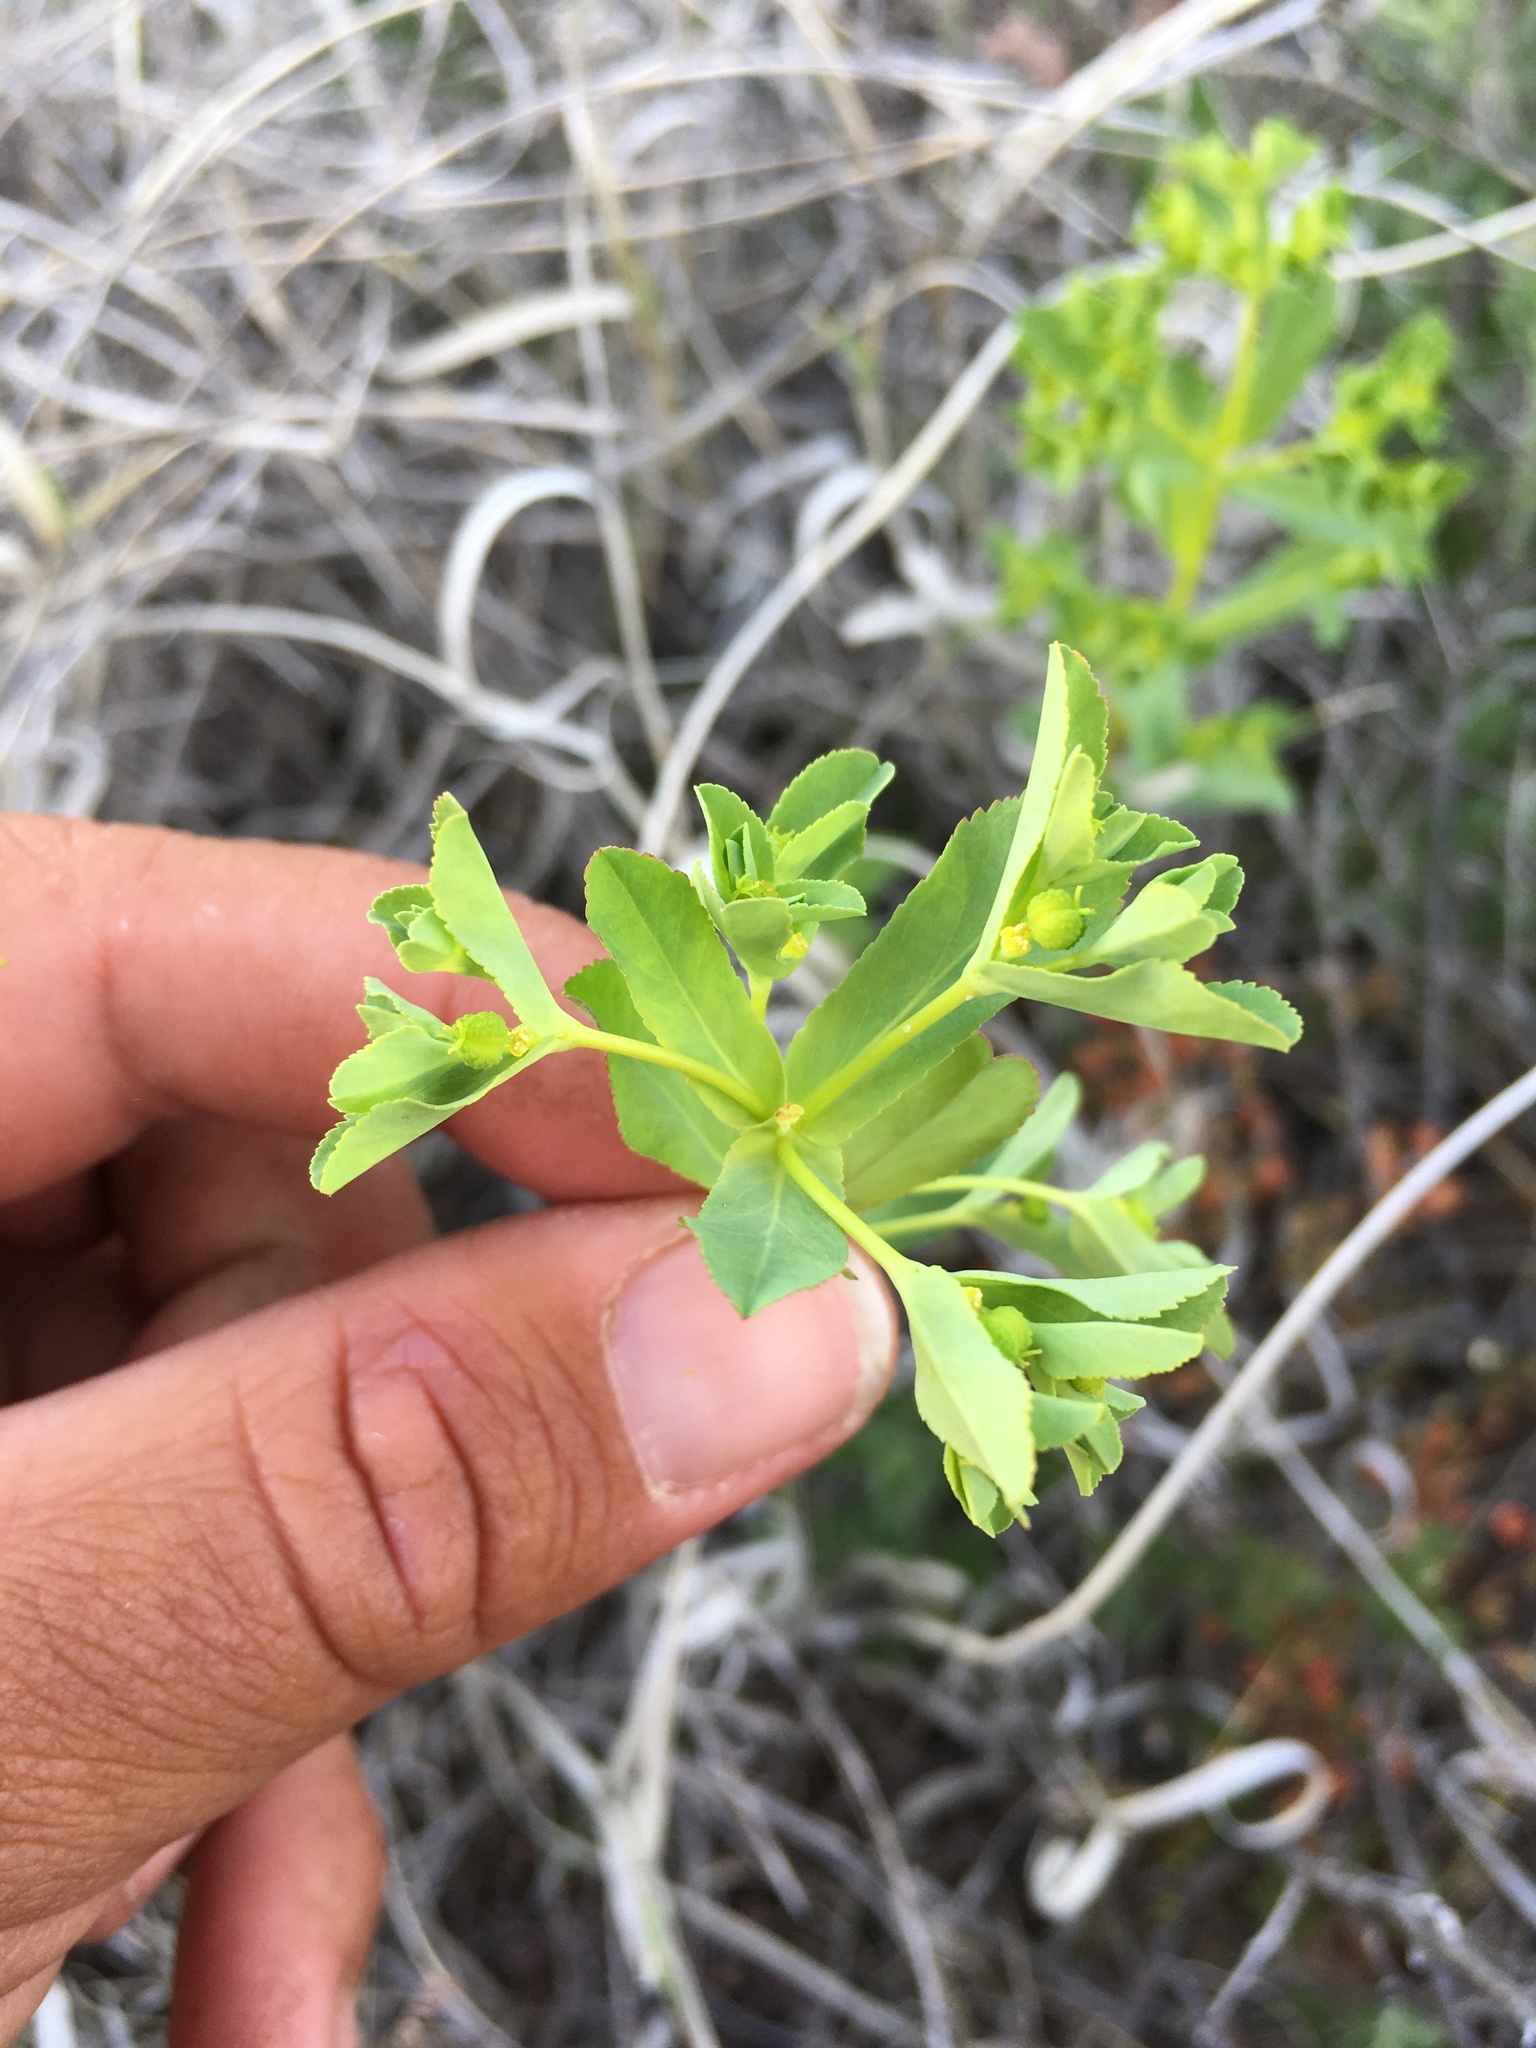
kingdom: Plantae
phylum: Tracheophyta
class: Magnoliopsida
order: Malpighiales
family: Euphorbiaceae
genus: Euphorbia
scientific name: Euphorbia spathulata
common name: Blunt spurge
